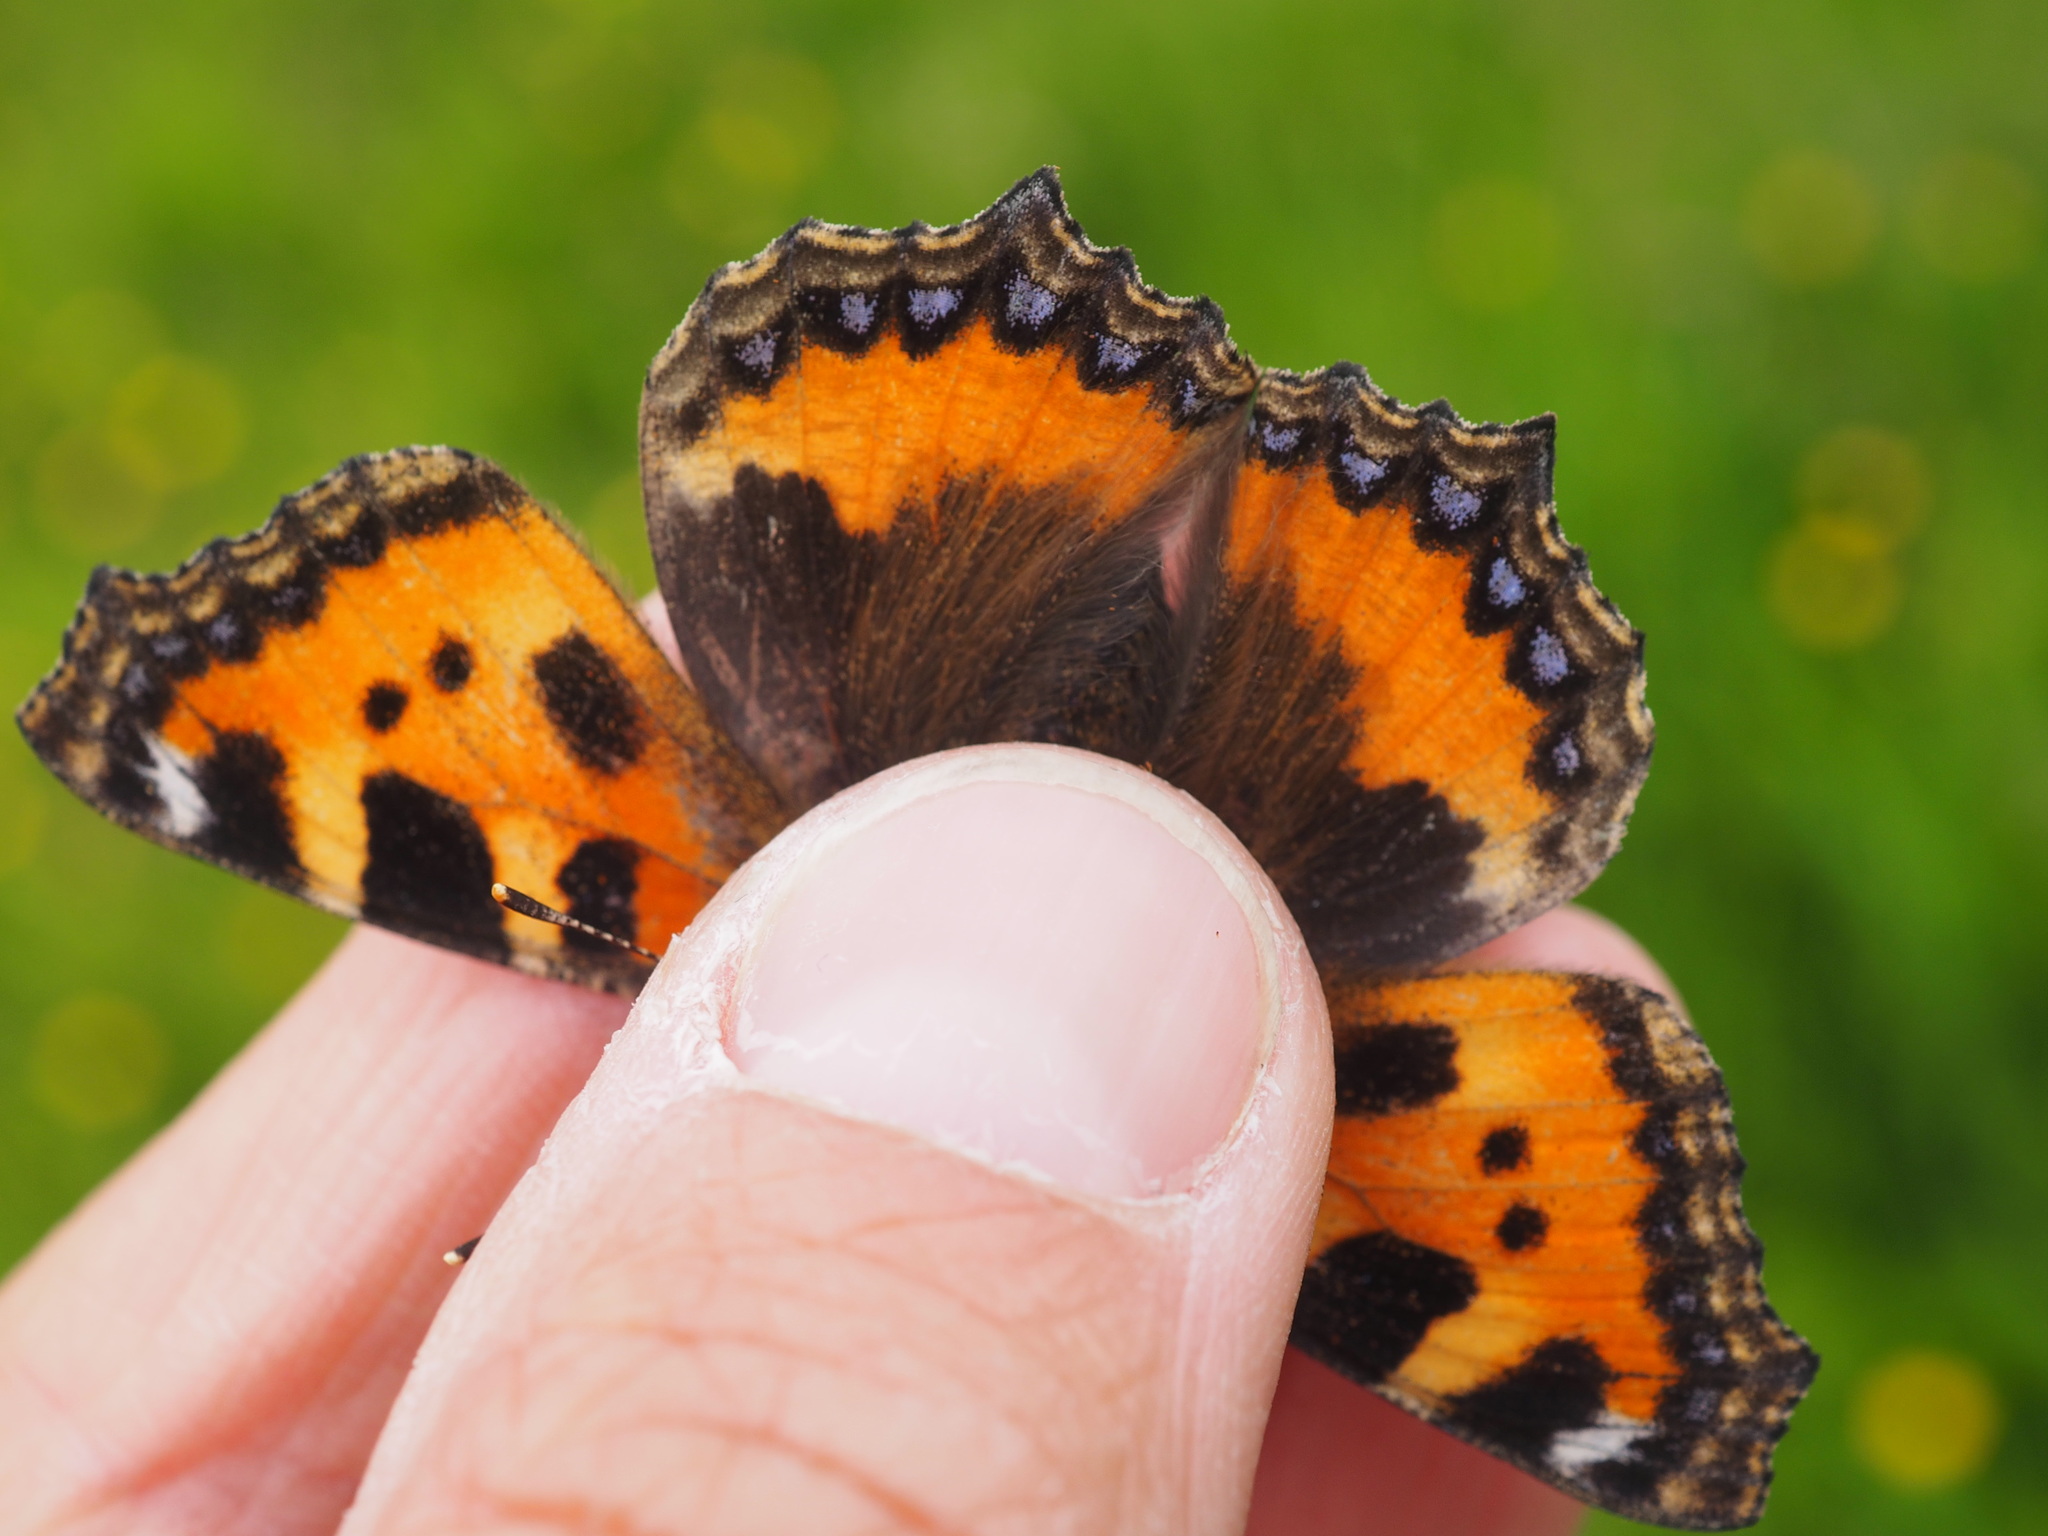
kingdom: Animalia
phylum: Arthropoda
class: Insecta
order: Lepidoptera
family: Nymphalidae
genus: Aglais
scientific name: Aglais urticae
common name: Small tortoiseshell
